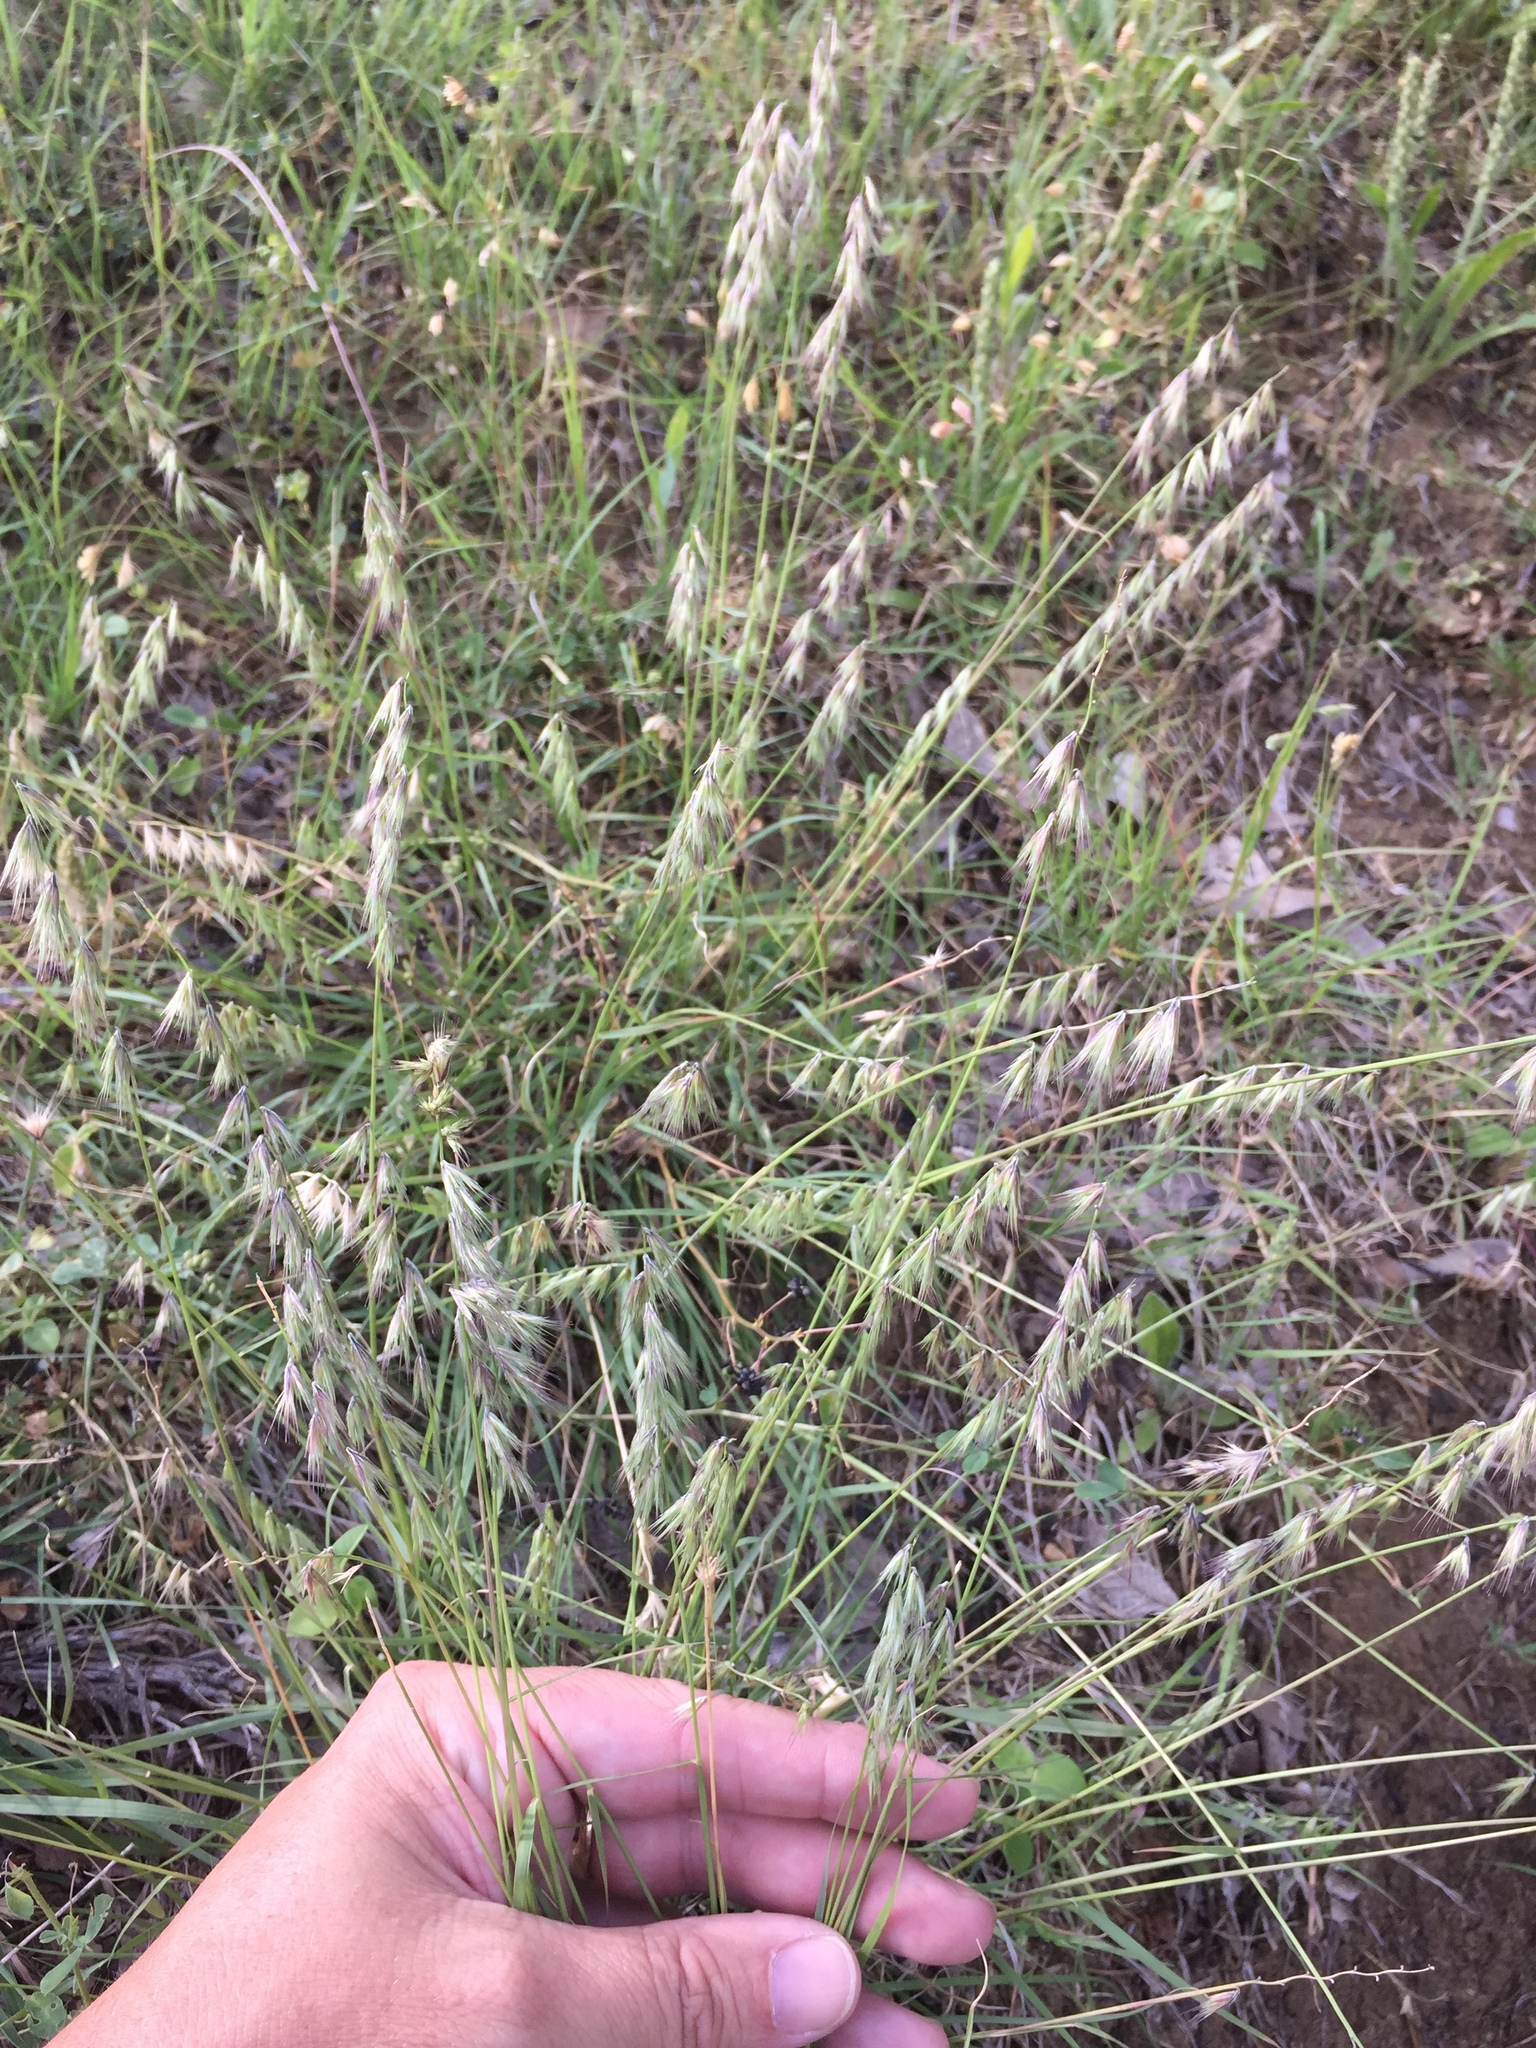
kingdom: Plantae
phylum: Tracheophyta
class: Liliopsida
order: Poales
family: Poaceae
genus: Bouteloua
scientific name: Bouteloua rigidiseta
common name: Texas grama
